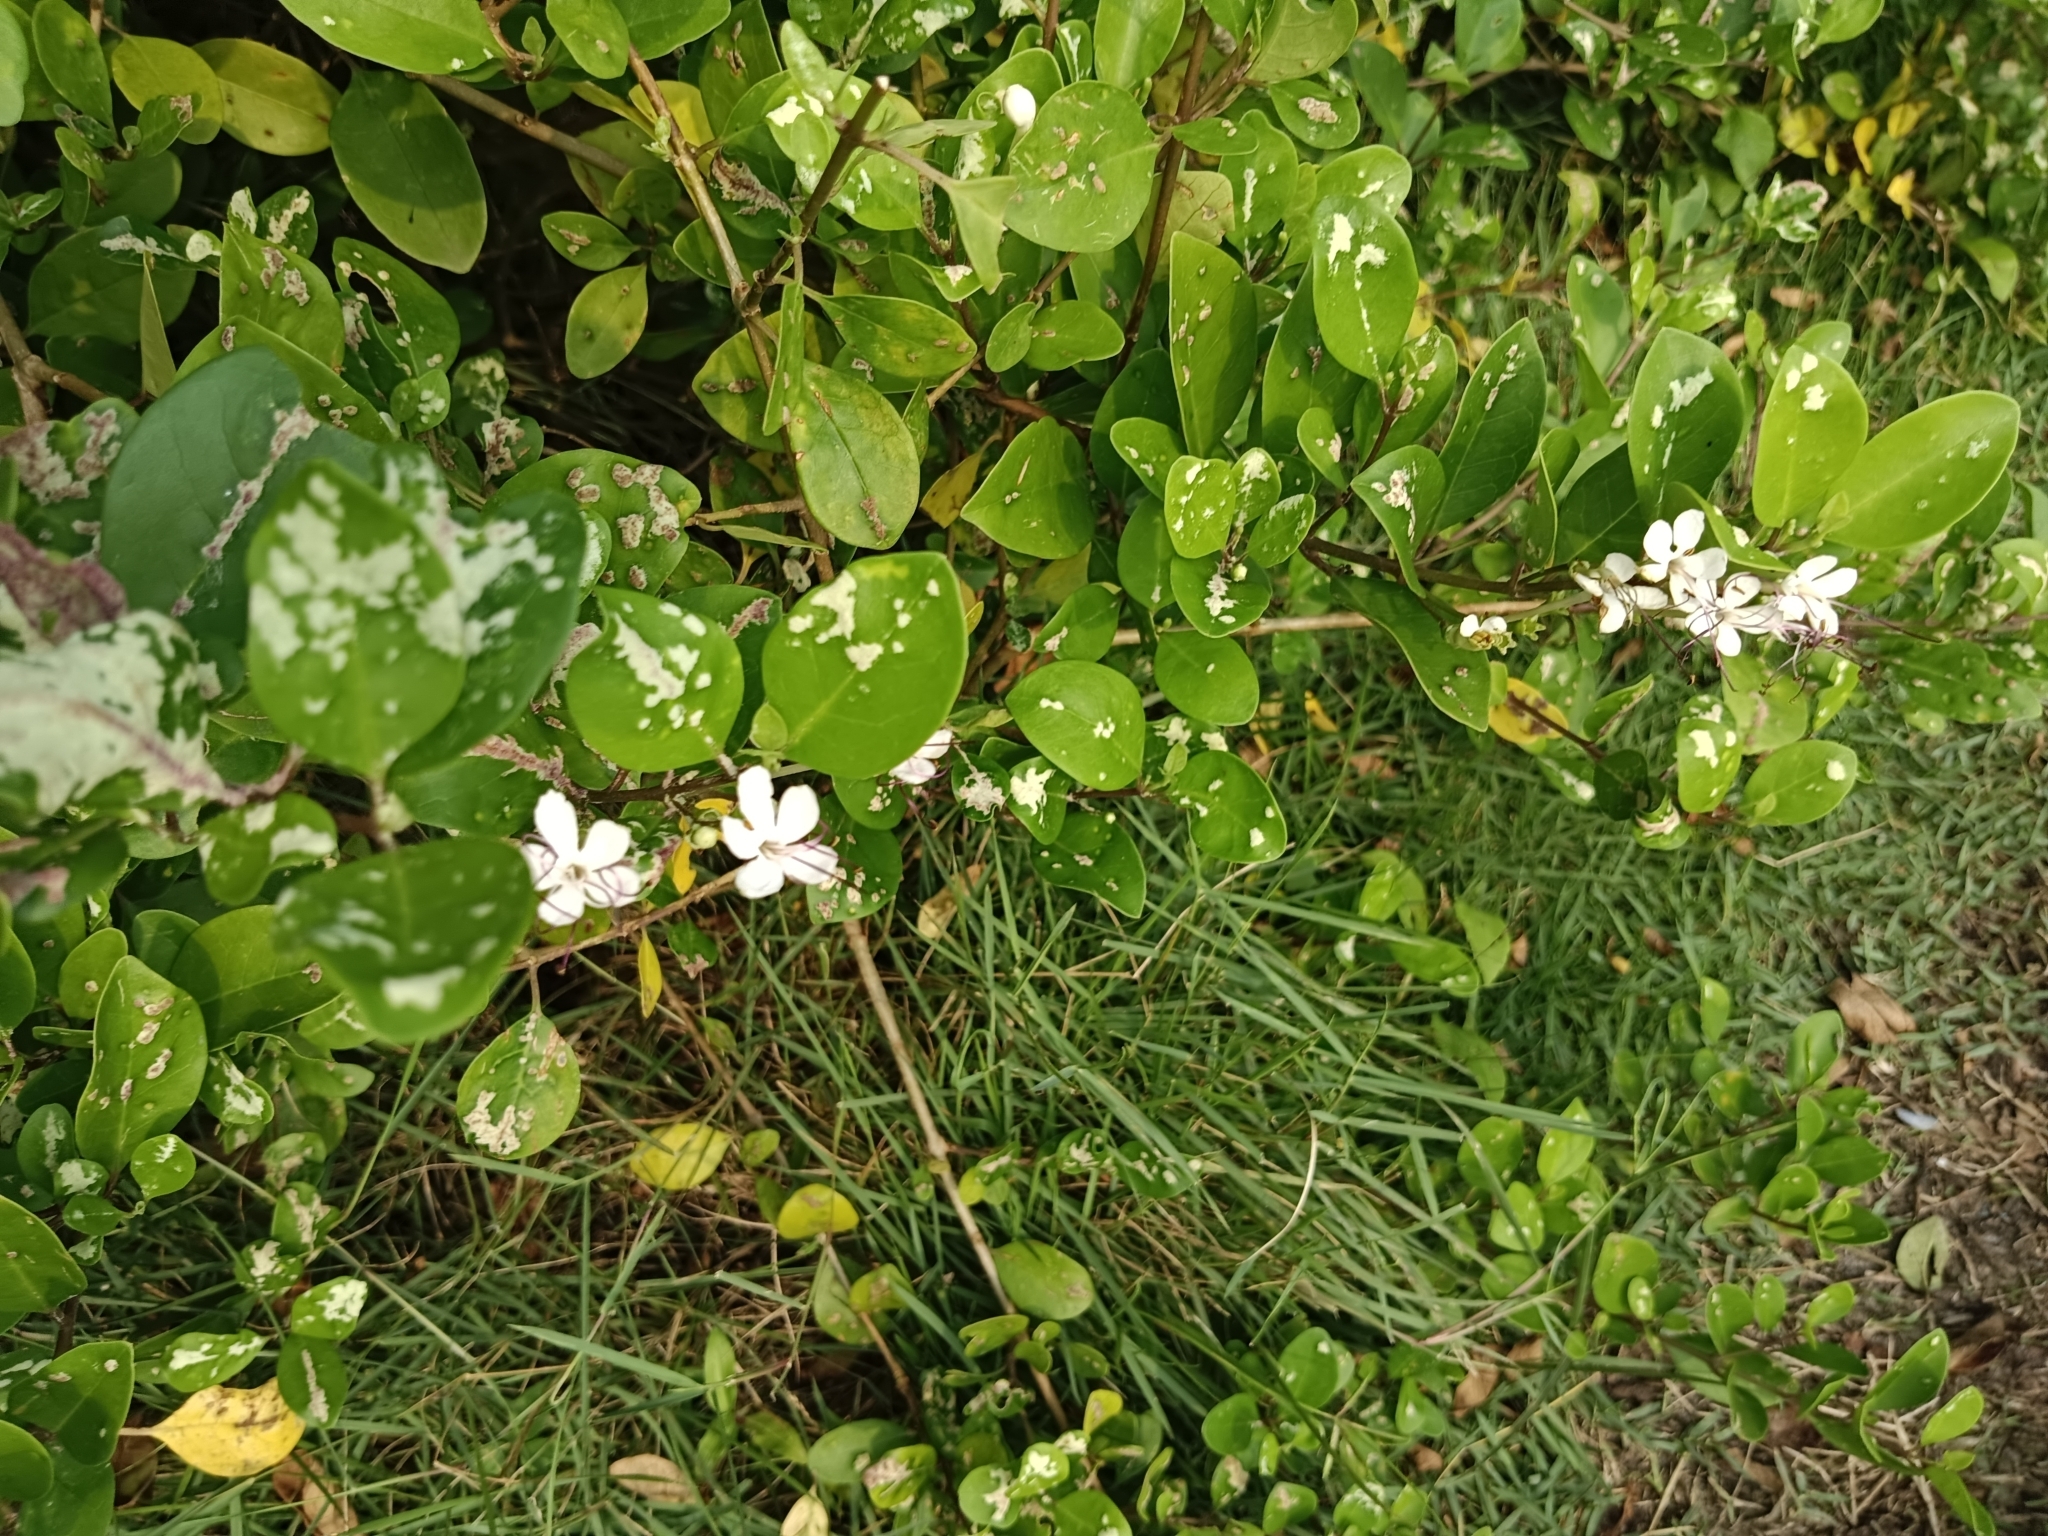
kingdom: Plantae
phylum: Tracheophyta
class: Magnoliopsida
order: Lamiales
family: Lamiaceae
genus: Volkameria
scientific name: Volkameria inermis
